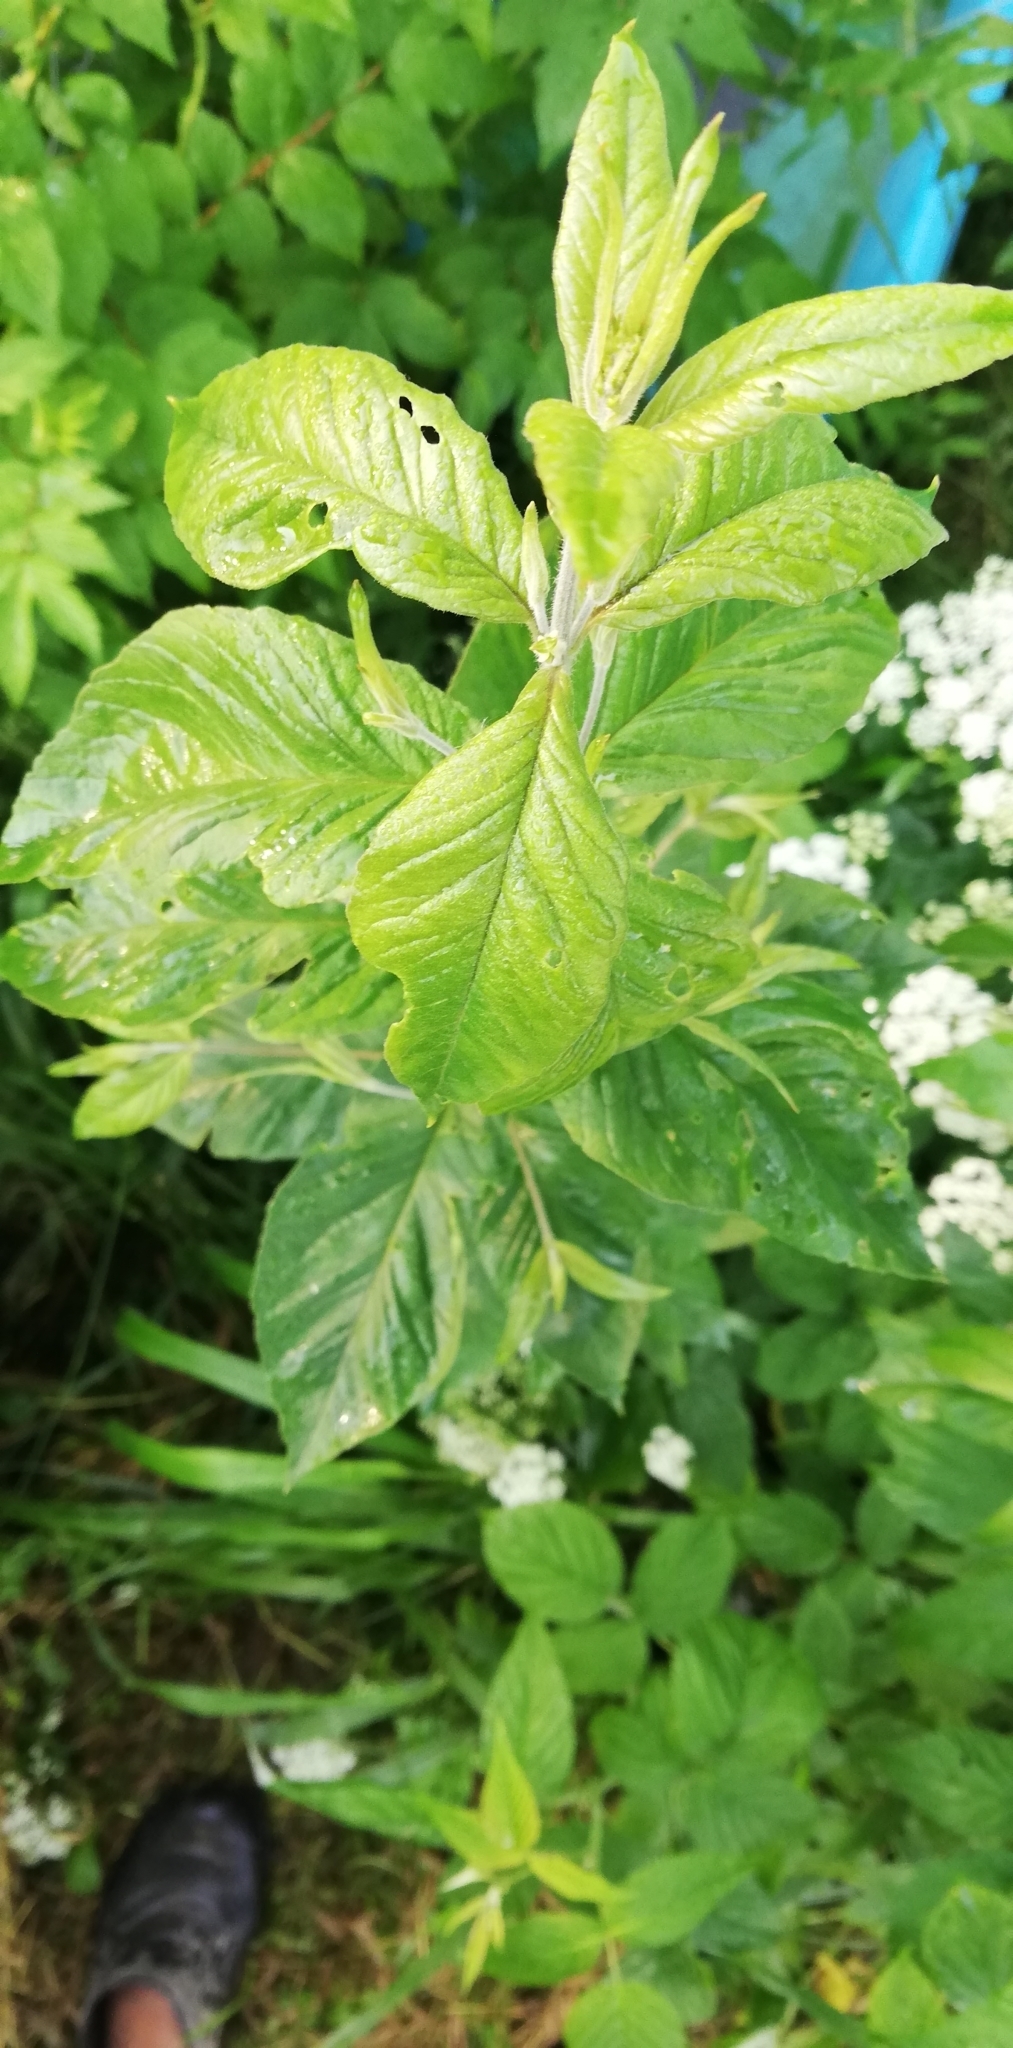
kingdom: Plantae
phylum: Tracheophyta
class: Magnoliopsida
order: Ericales
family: Primulaceae
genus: Lysimachia
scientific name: Lysimachia vulgaris
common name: Yellow loosestrife
